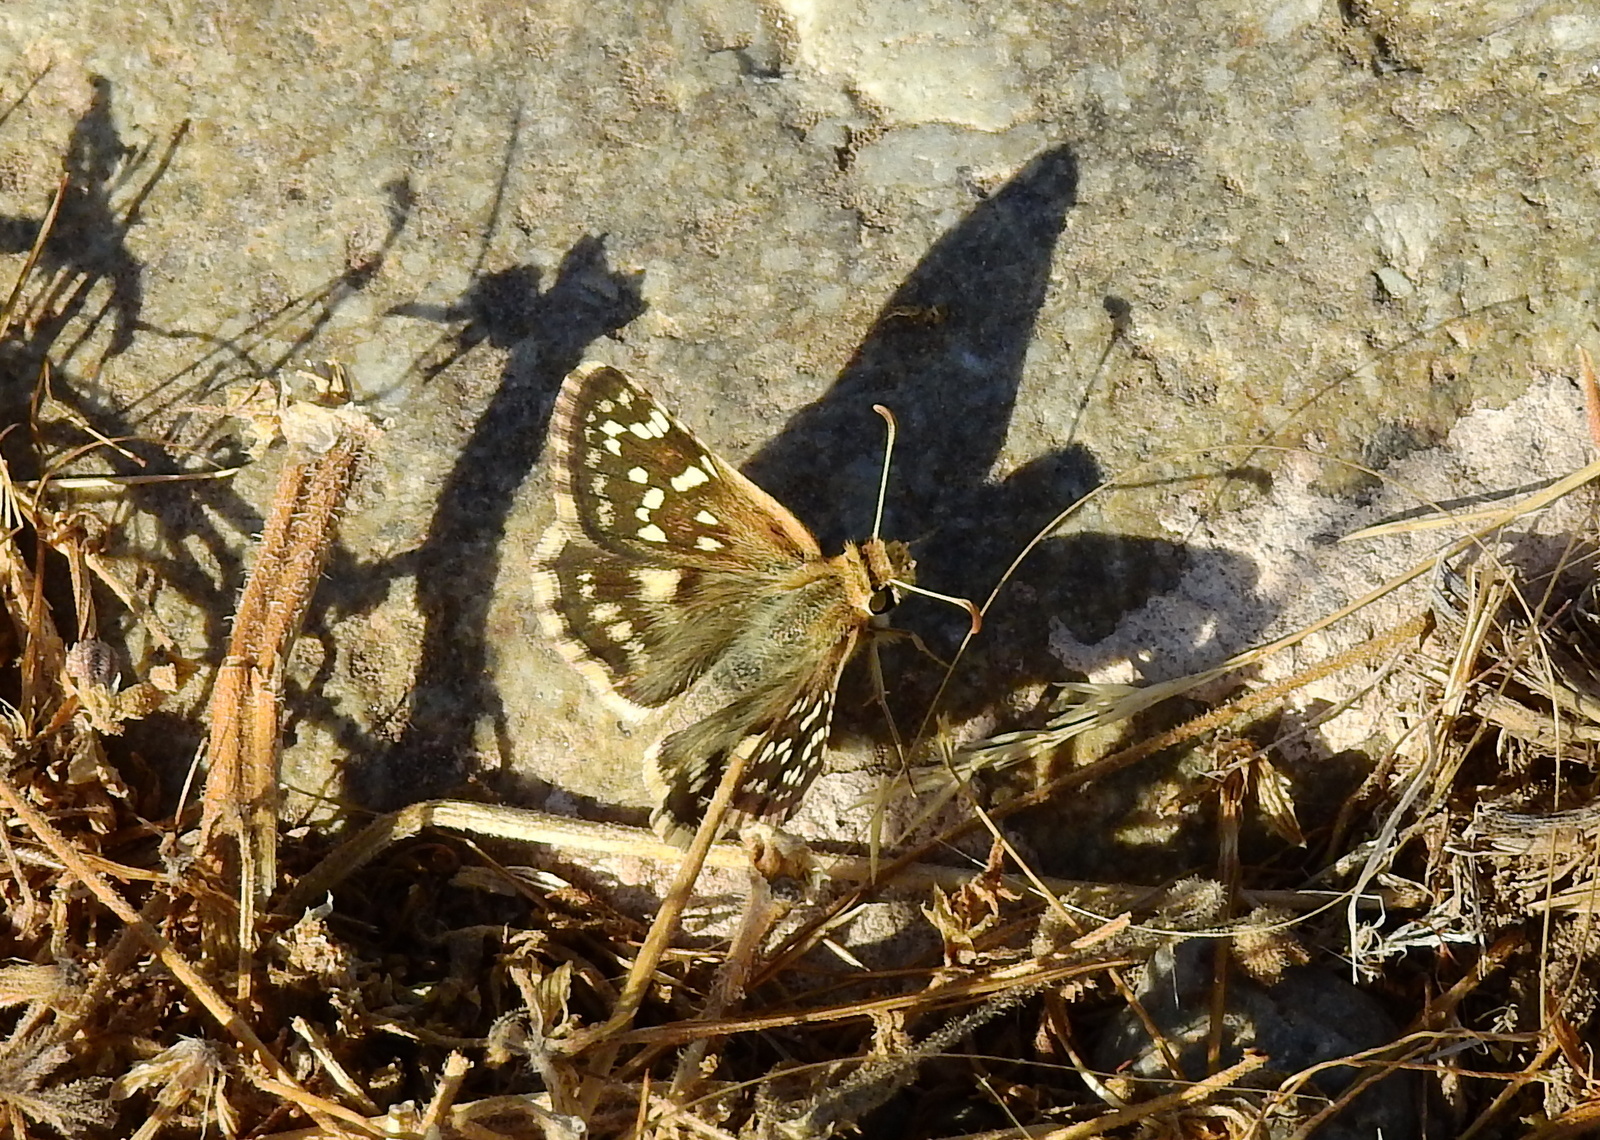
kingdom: Animalia
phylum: Arthropoda
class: Insecta
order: Lepidoptera
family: Hesperiidae
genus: Chirgus
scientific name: Chirgus fides
